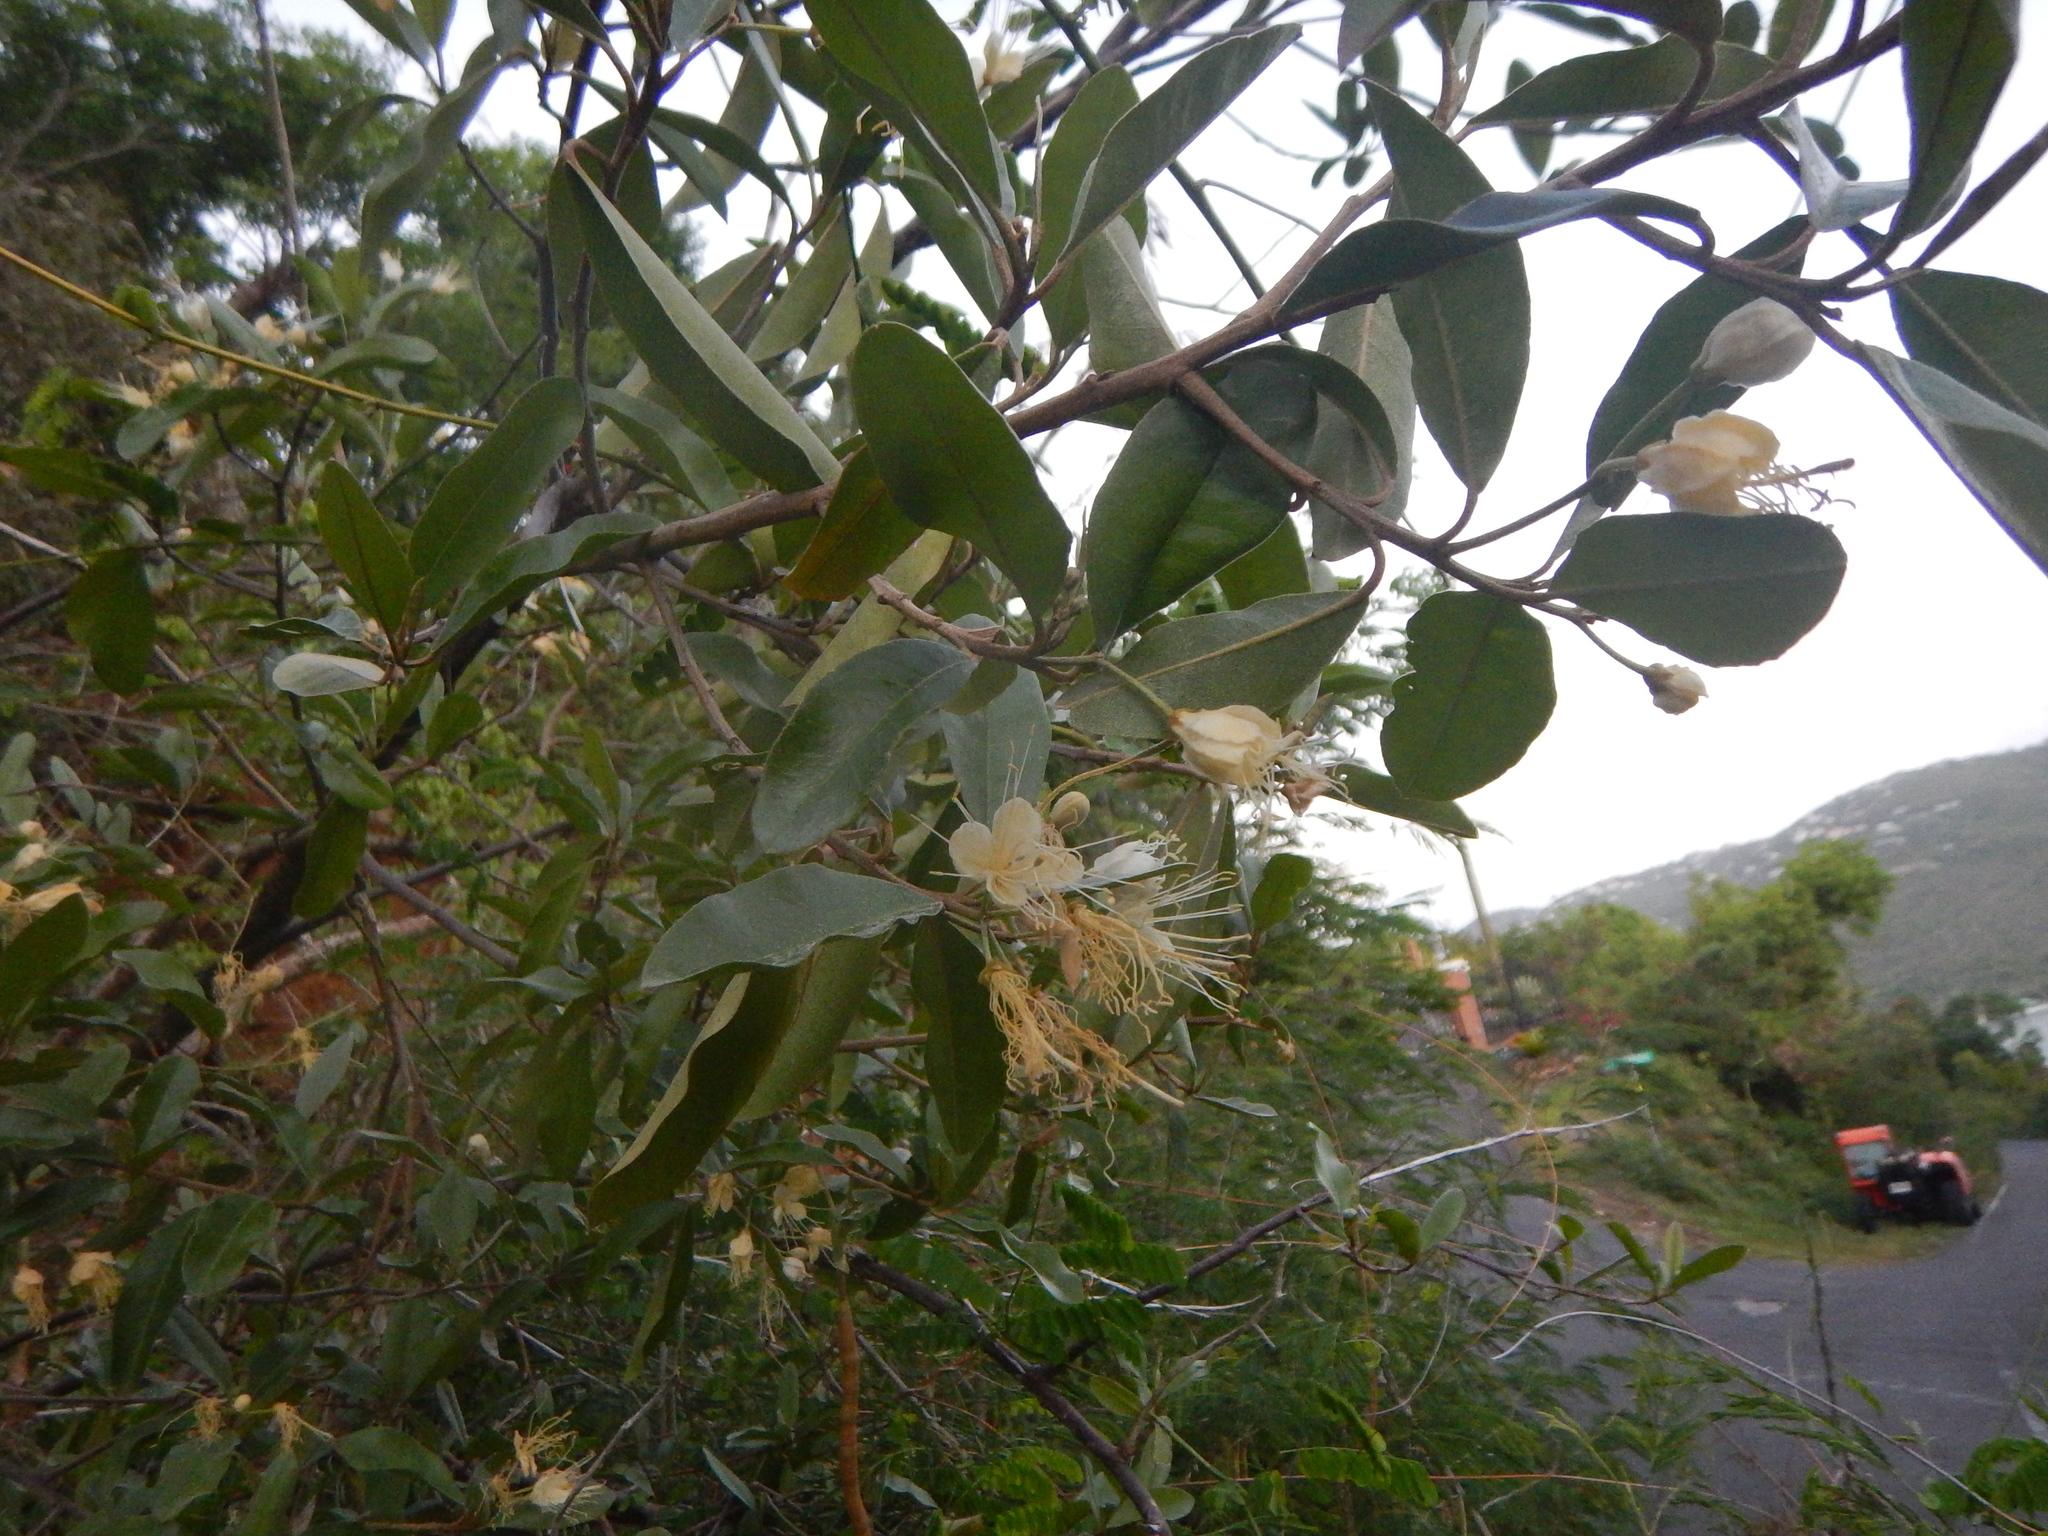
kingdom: Plantae
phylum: Tracheophyta
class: Magnoliopsida
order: Brassicales
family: Capparaceae
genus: Quadrella
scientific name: Quadrella indica
